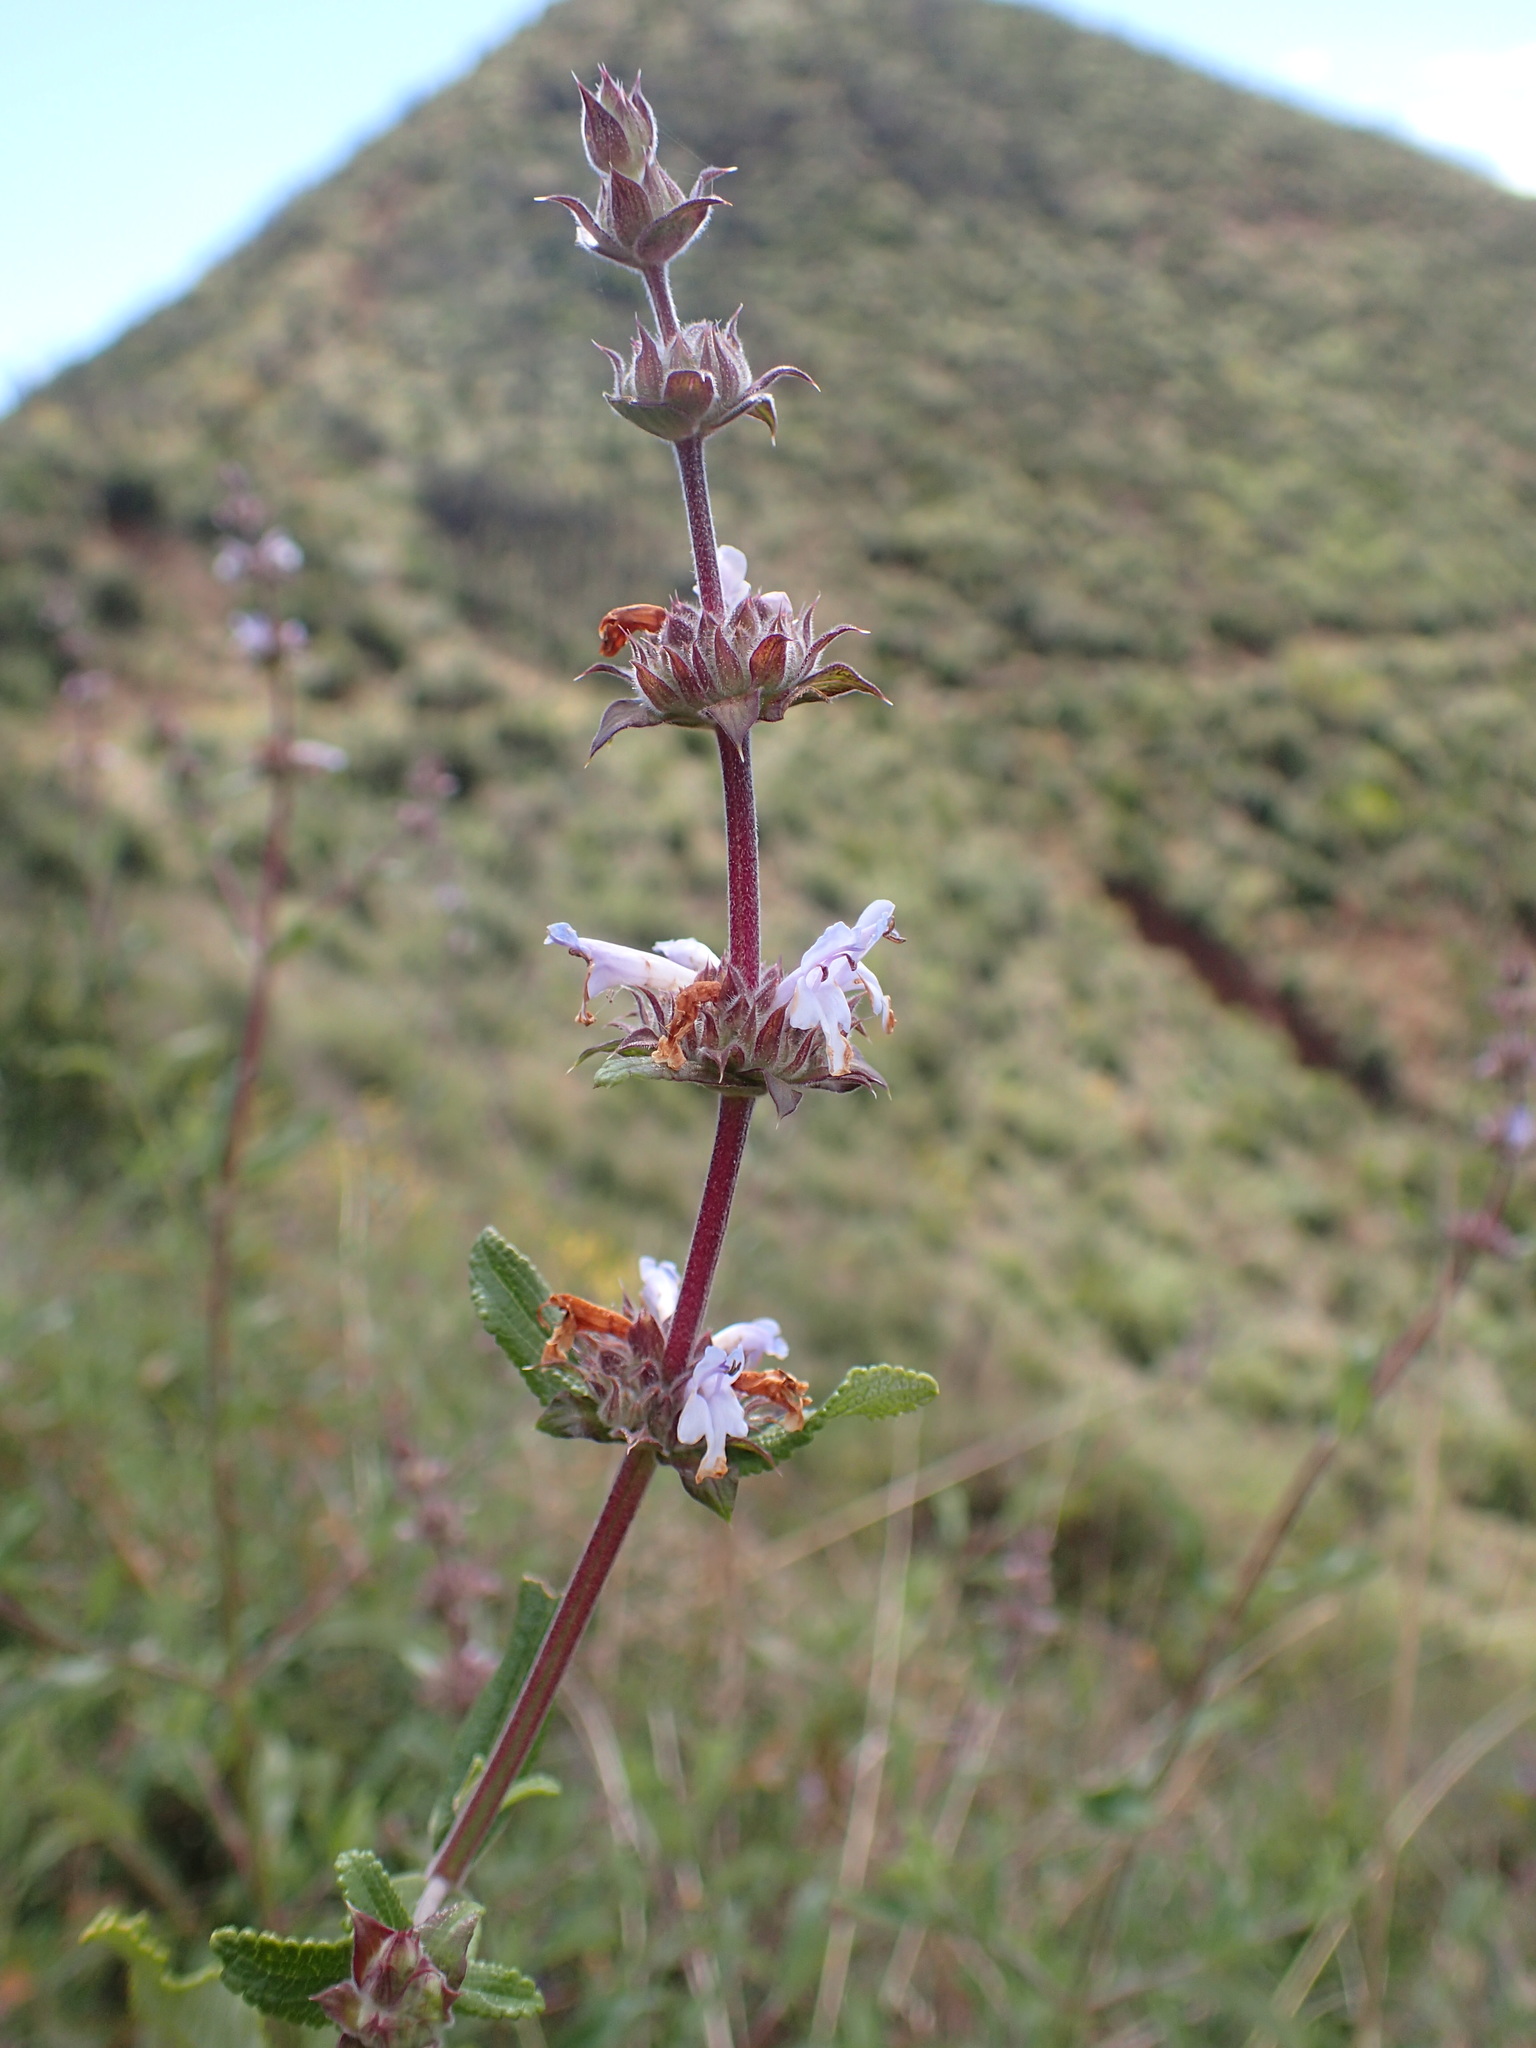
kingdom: Plantae
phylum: Tracheophyta
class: Magnoliopsida
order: Lamiales
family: Lamiaceae
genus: Salvia
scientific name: Salvia mellifera
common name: Black sage
